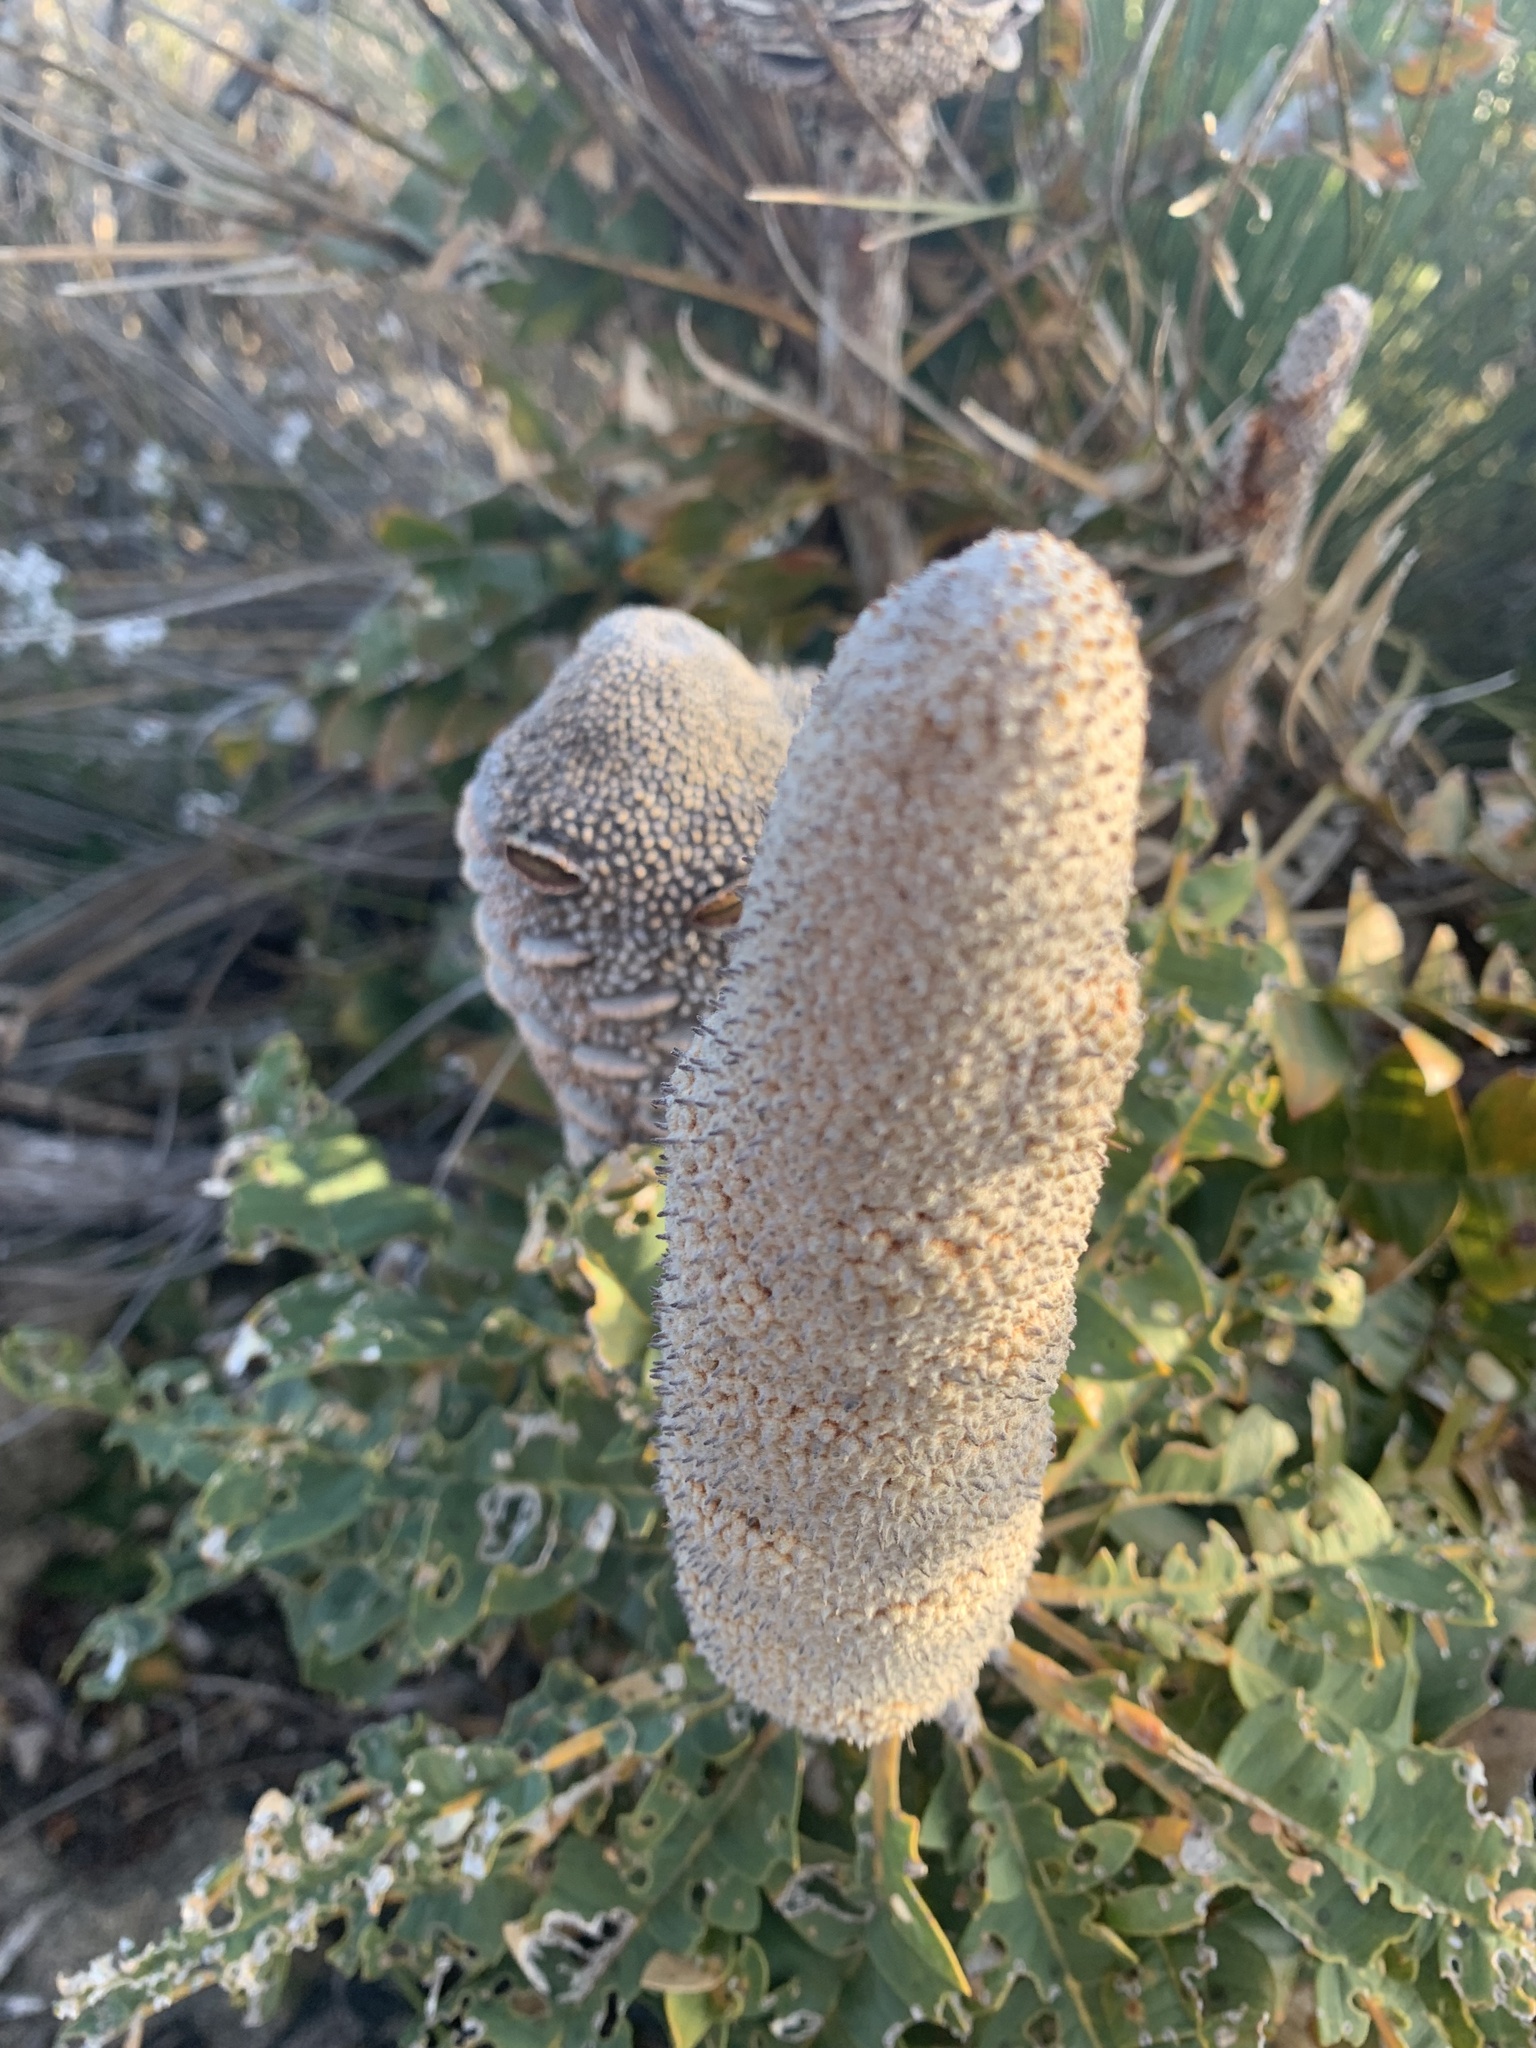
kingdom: Plantae
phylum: Tracheophyta
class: Magnoliopsida
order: Proteales
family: Proteaceae
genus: Banksia
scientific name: Banksia grandis
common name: Giant banksia
